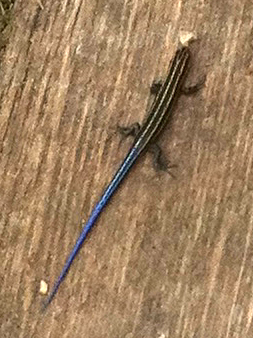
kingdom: Animalia
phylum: Chordata
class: Squamata
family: Scincidae
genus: Plestiodon
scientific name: Plestiodon
